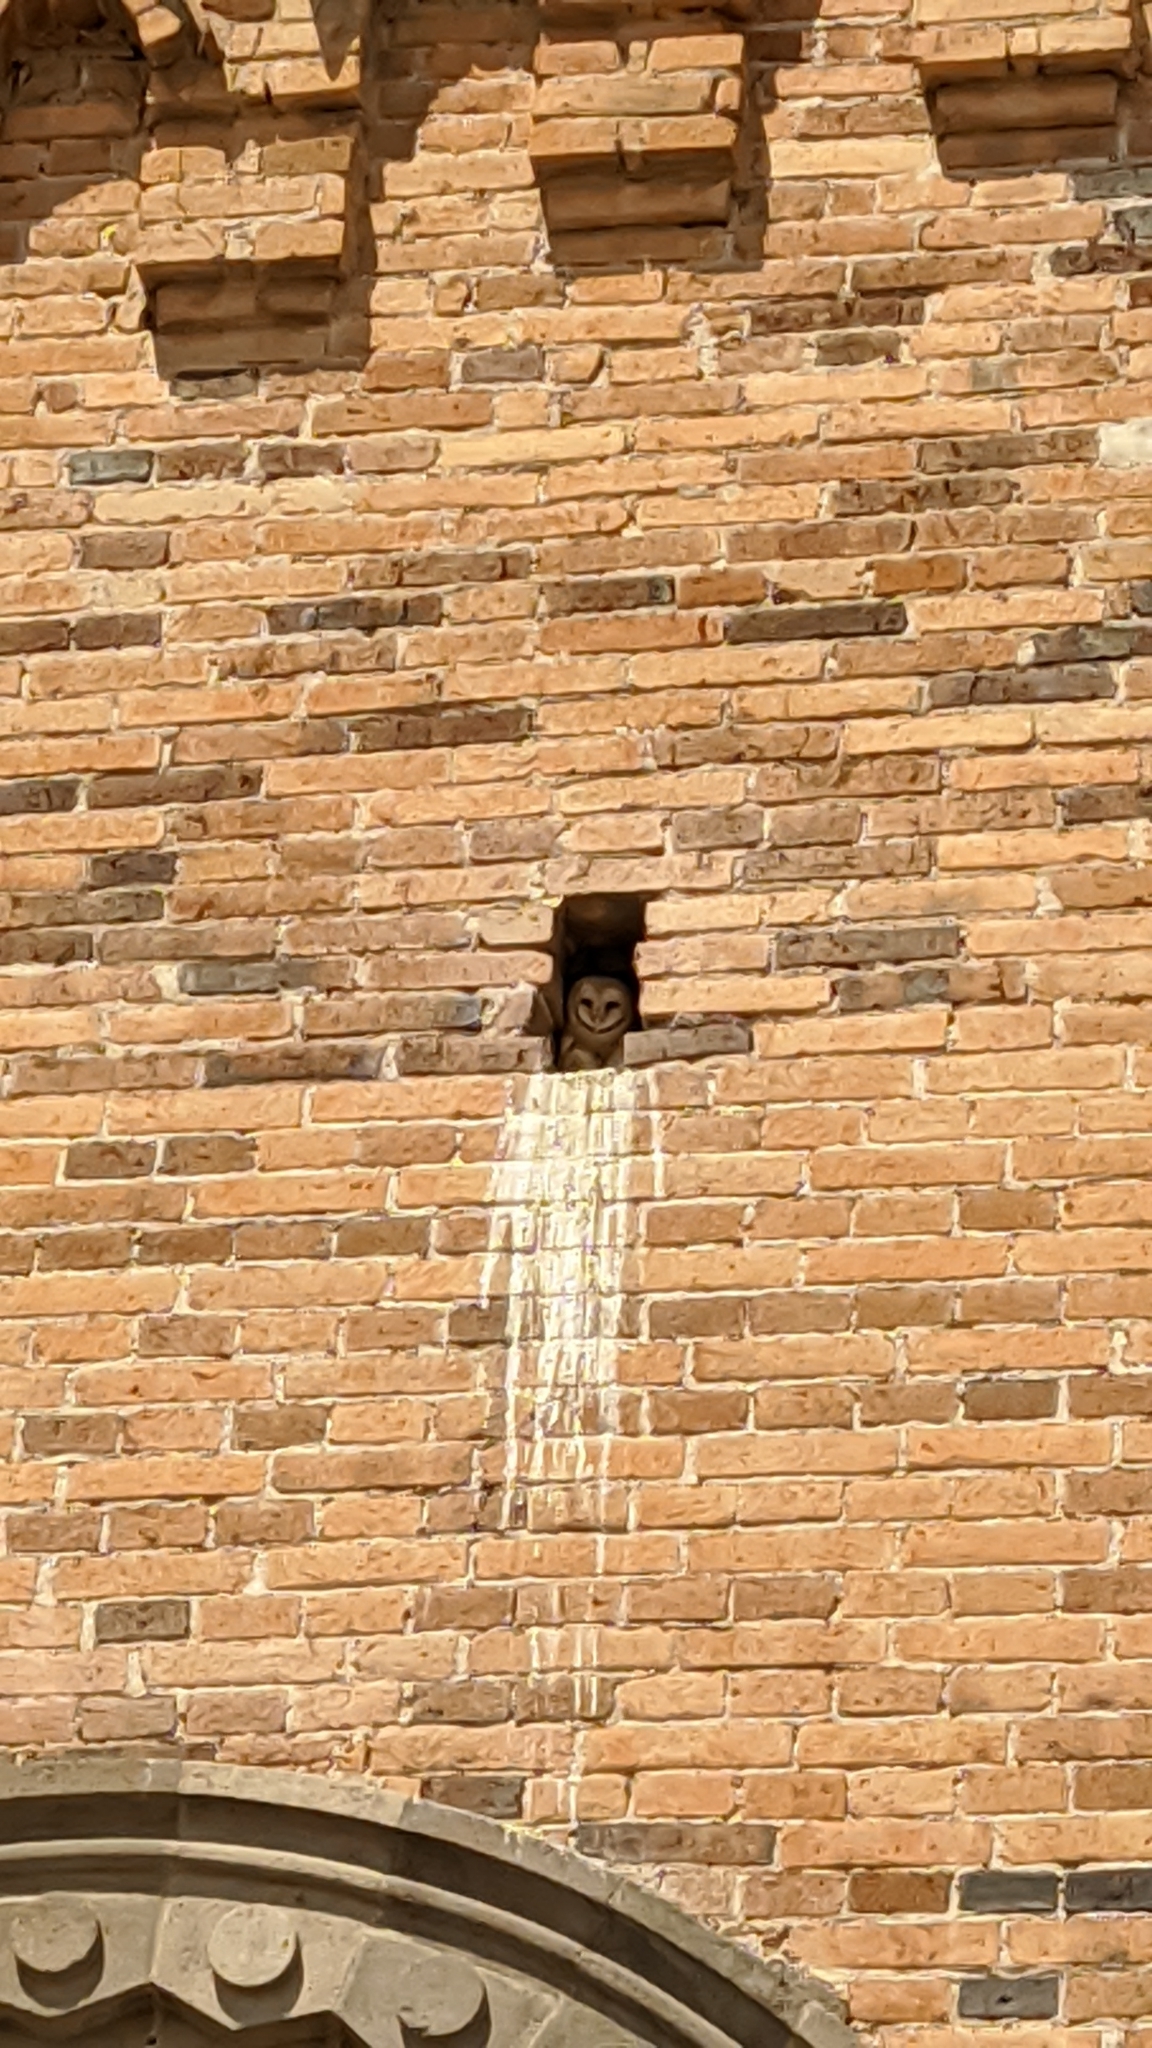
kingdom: Animalia
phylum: Chordata
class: Aves
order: Strigiformes
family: Tytonidae
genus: Tyto
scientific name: Tyto alba
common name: Barn owl
